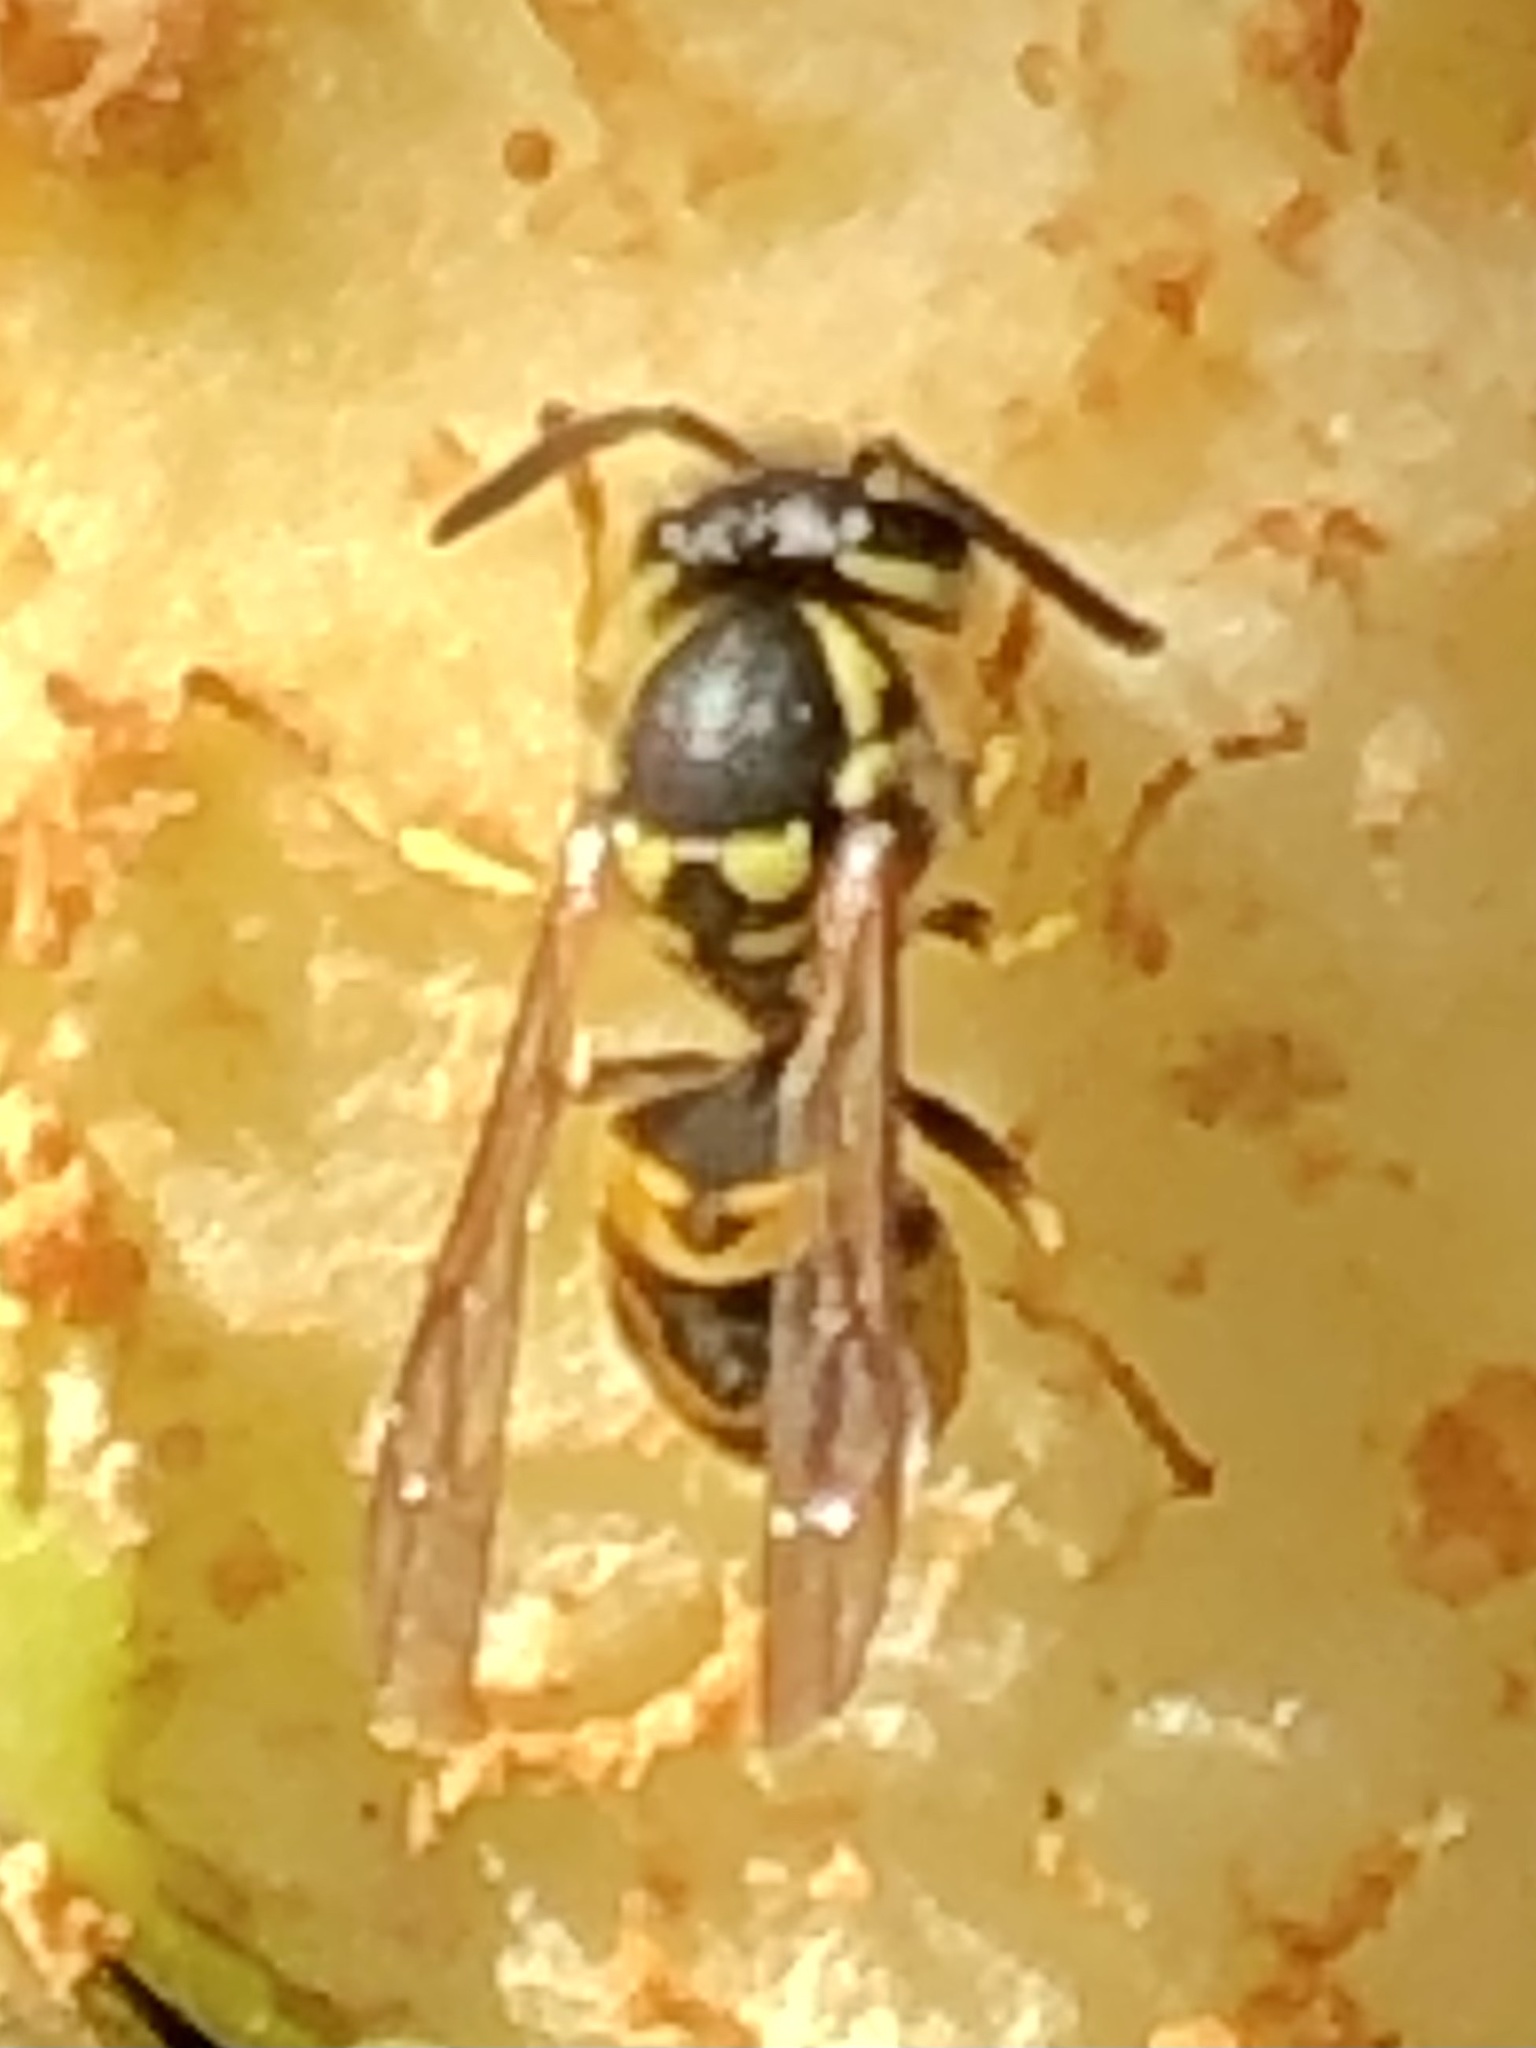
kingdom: Animalia
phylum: Arthropoda
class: Insecta
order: Hymenoptera
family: Vespidae
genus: Vespula
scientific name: Vespula germanica
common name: German wasp
